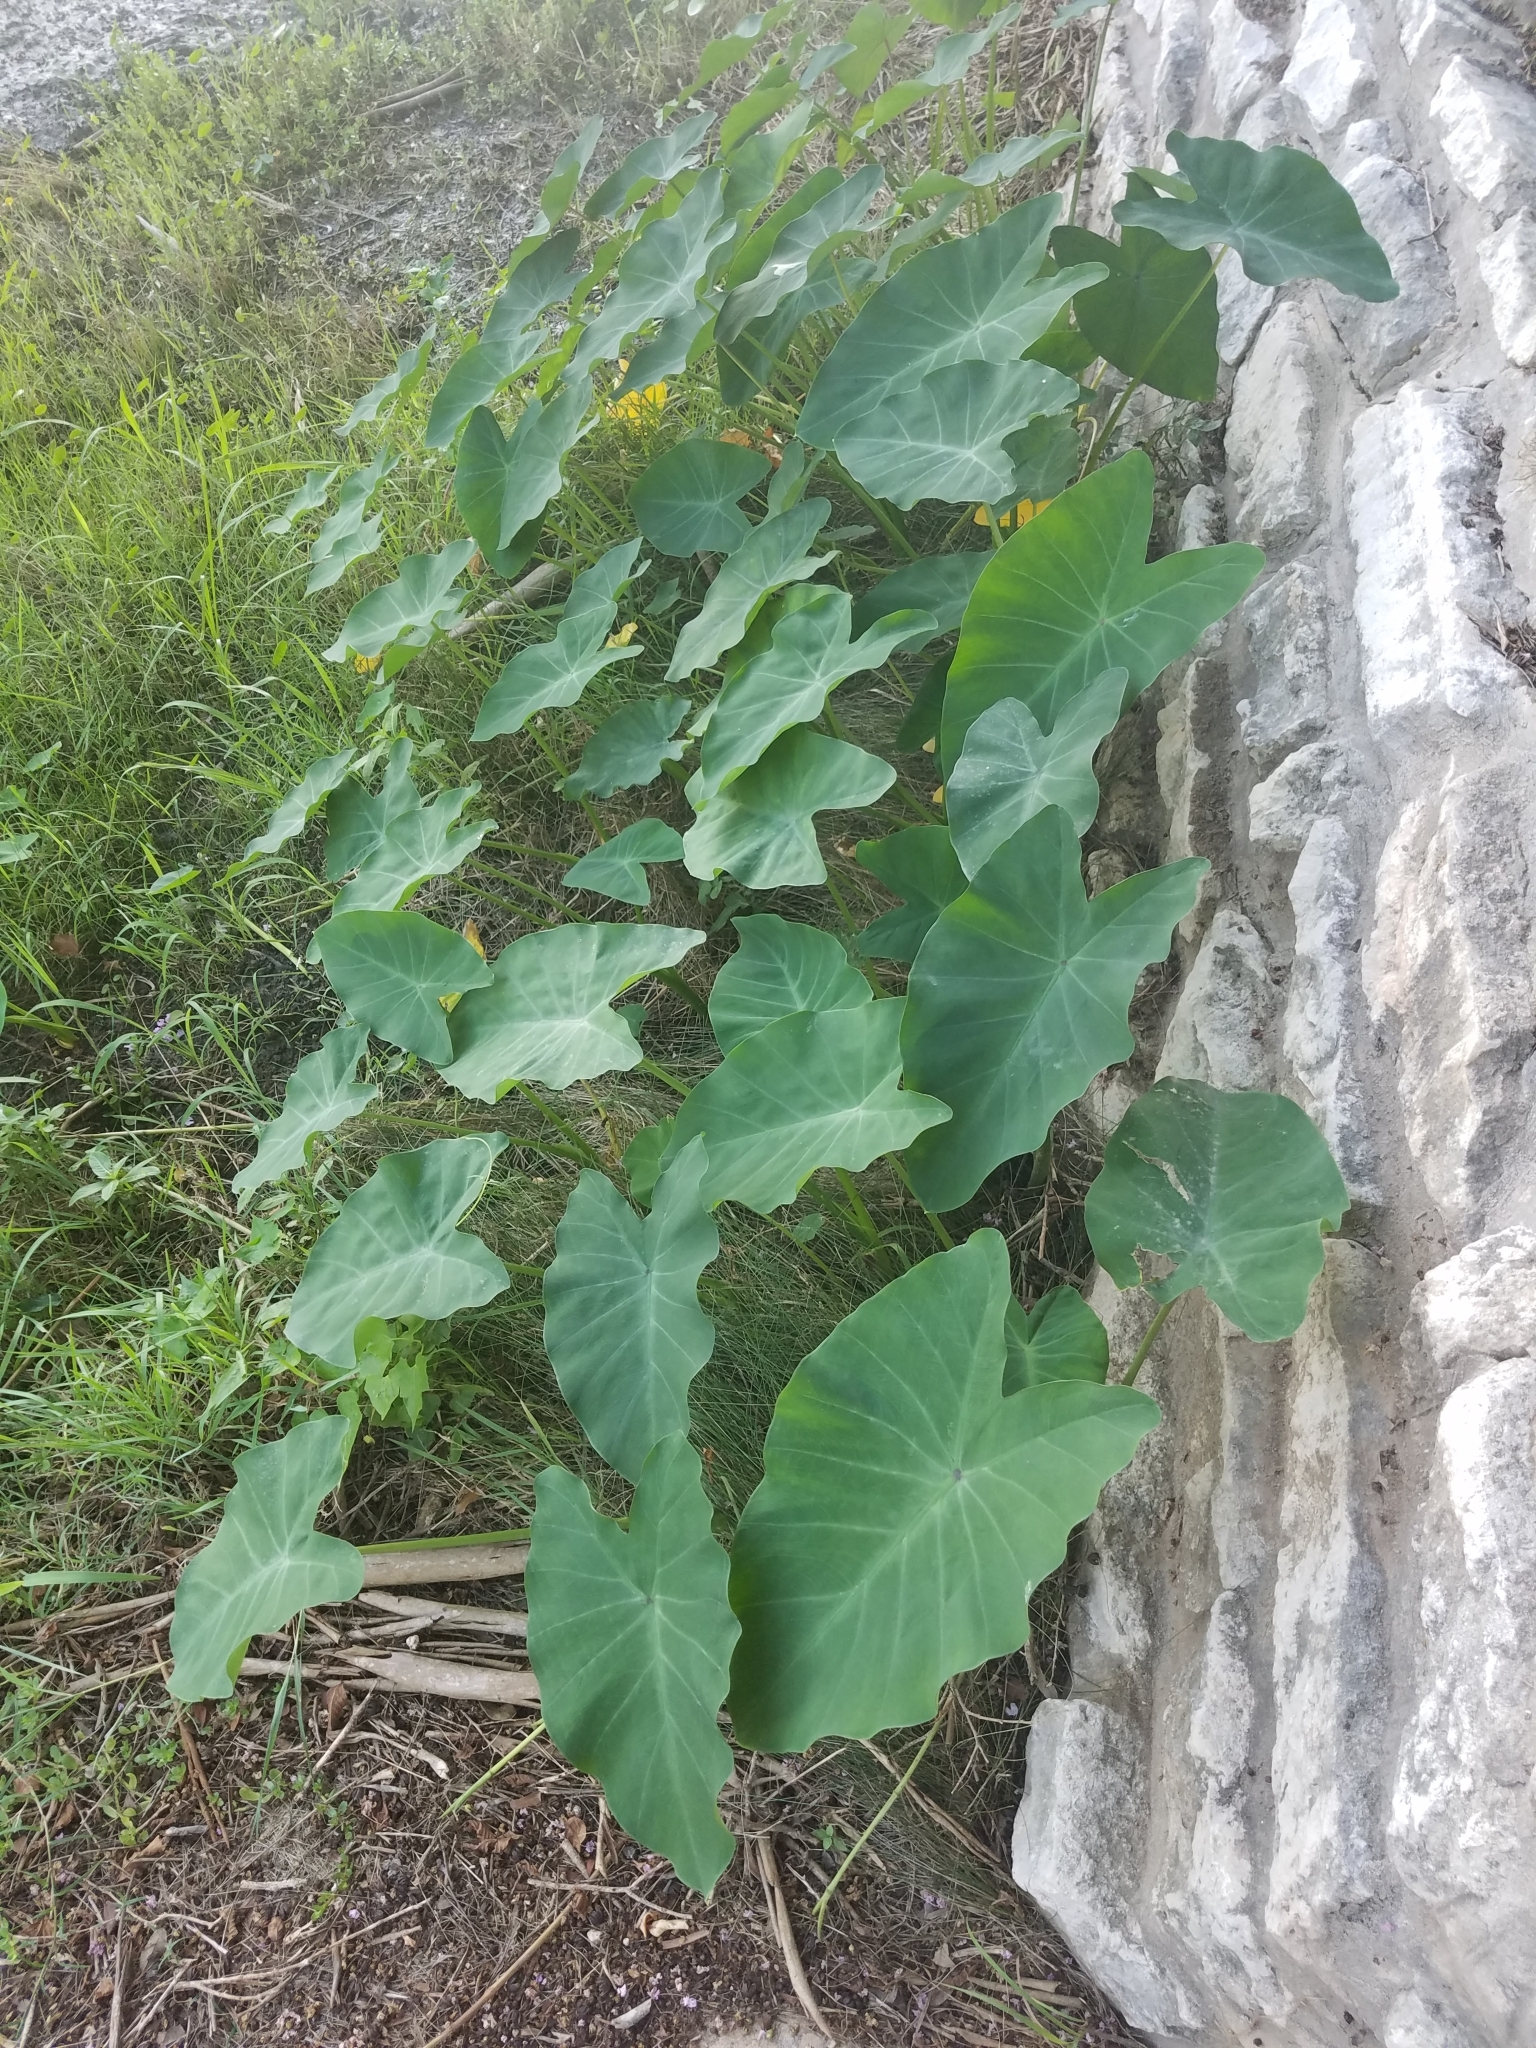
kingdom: Plantae
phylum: Tracheophyta
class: Liliopsida
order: Alismatales
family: Araceae
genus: Colocasia
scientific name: Colocasia esculenta
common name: Taro
